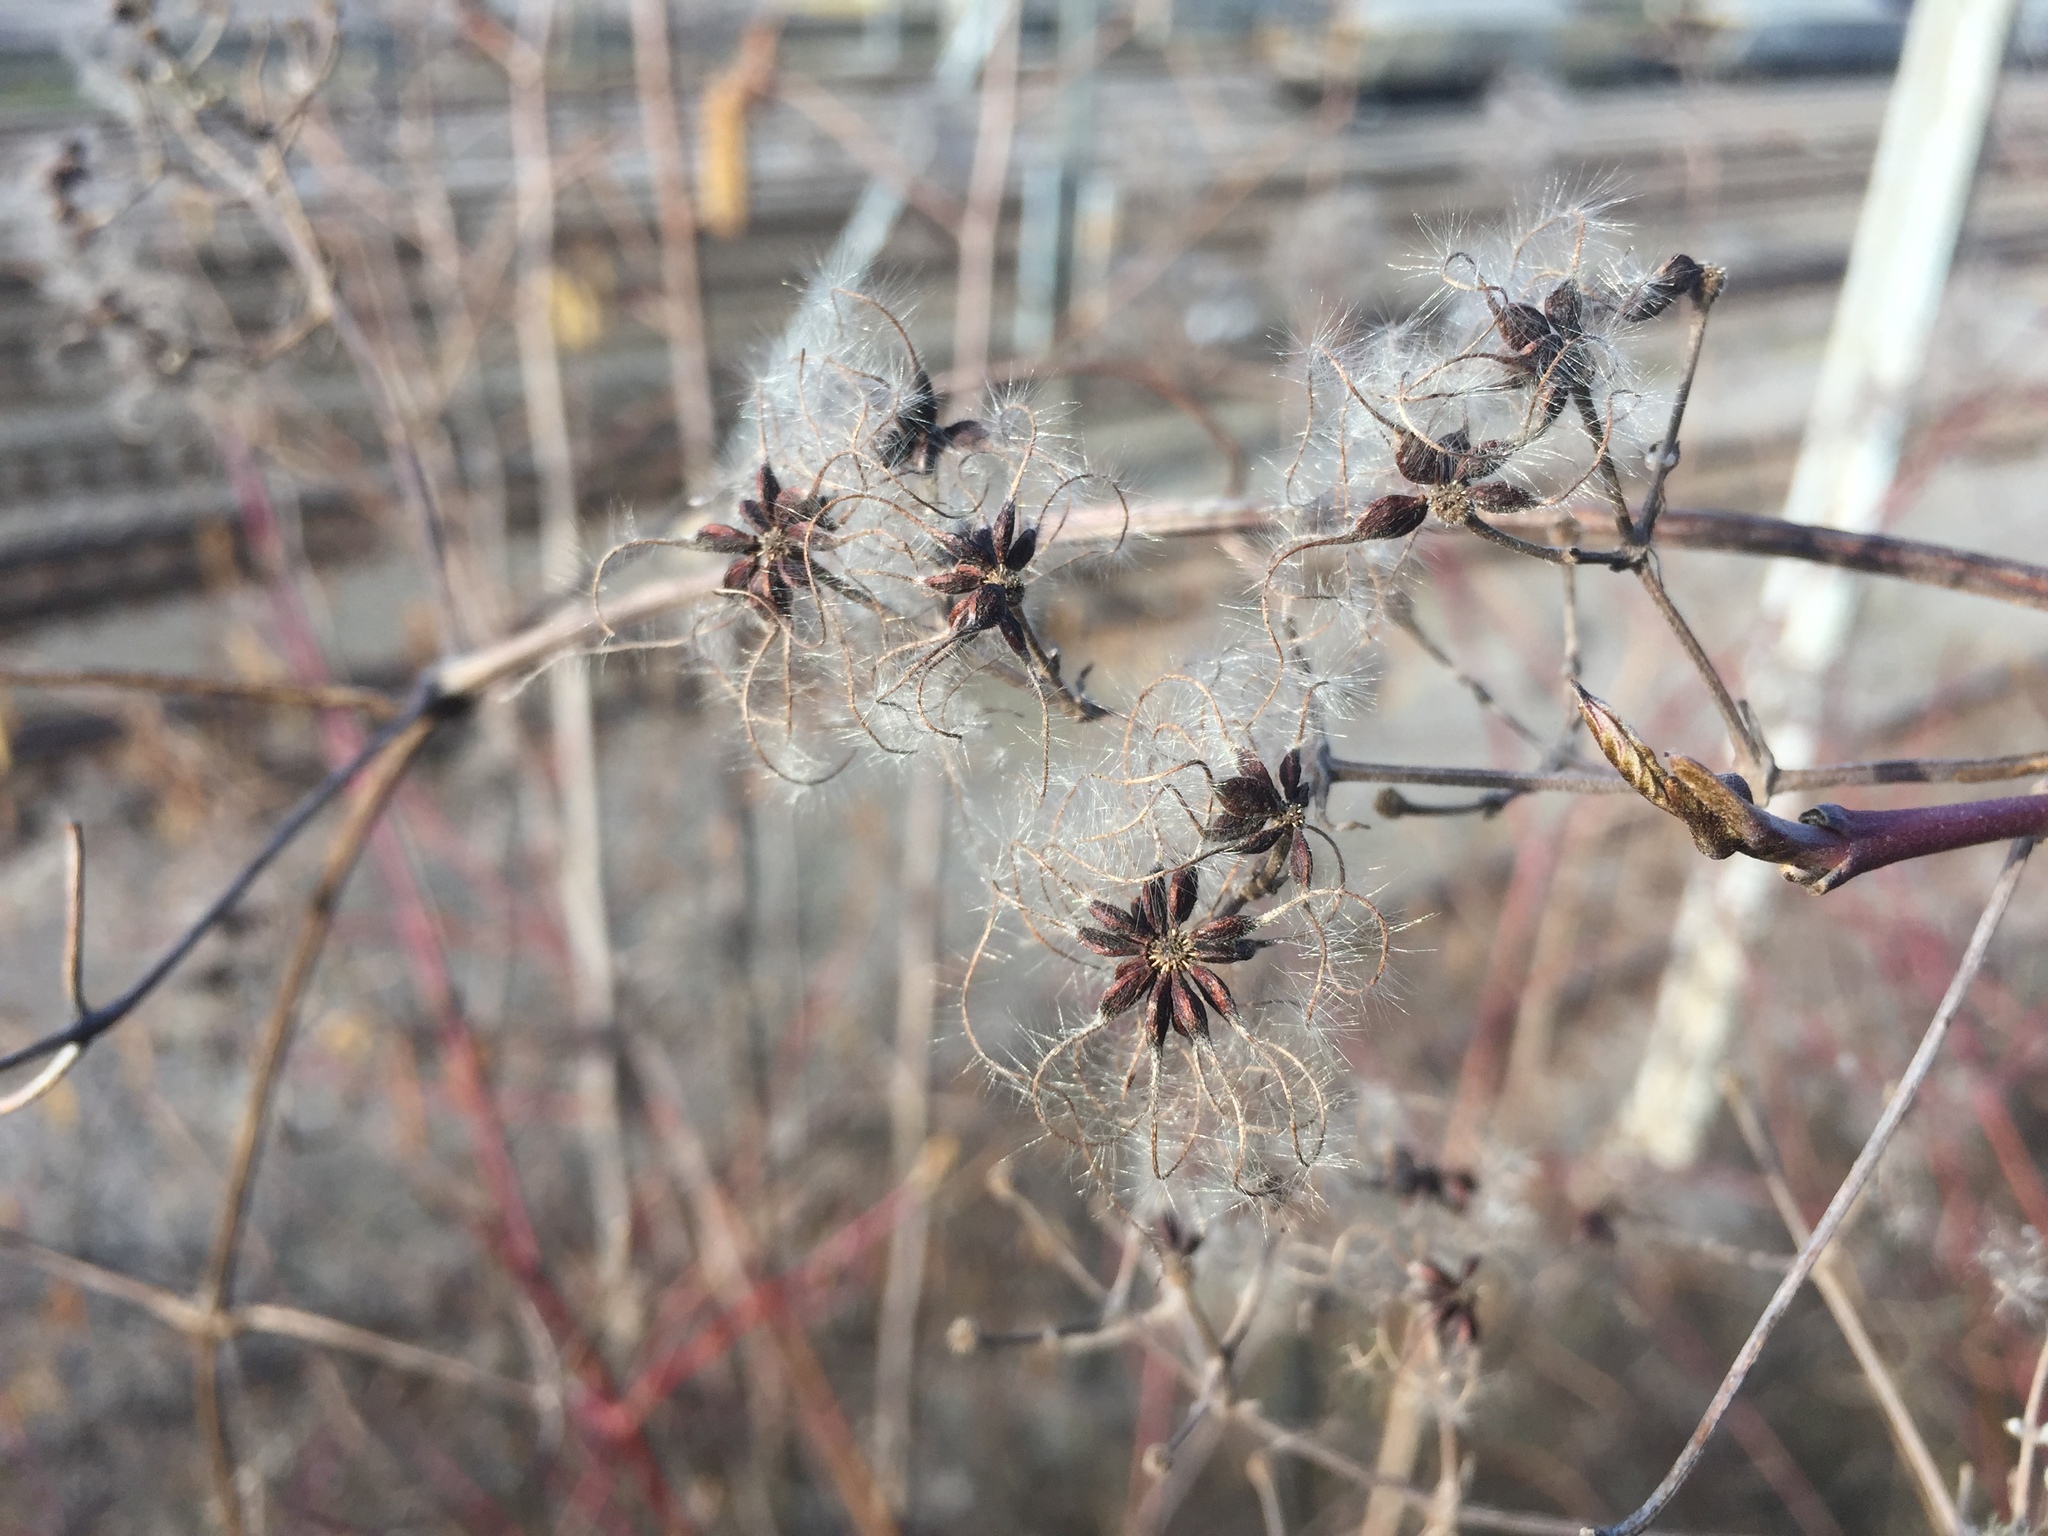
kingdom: Plantae
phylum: Tracheophyta
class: Magnoliopsida
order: Ranunculales
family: Ranunculaceae
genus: Clematis
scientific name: Clematis vitalba
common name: Evergreen clematis
